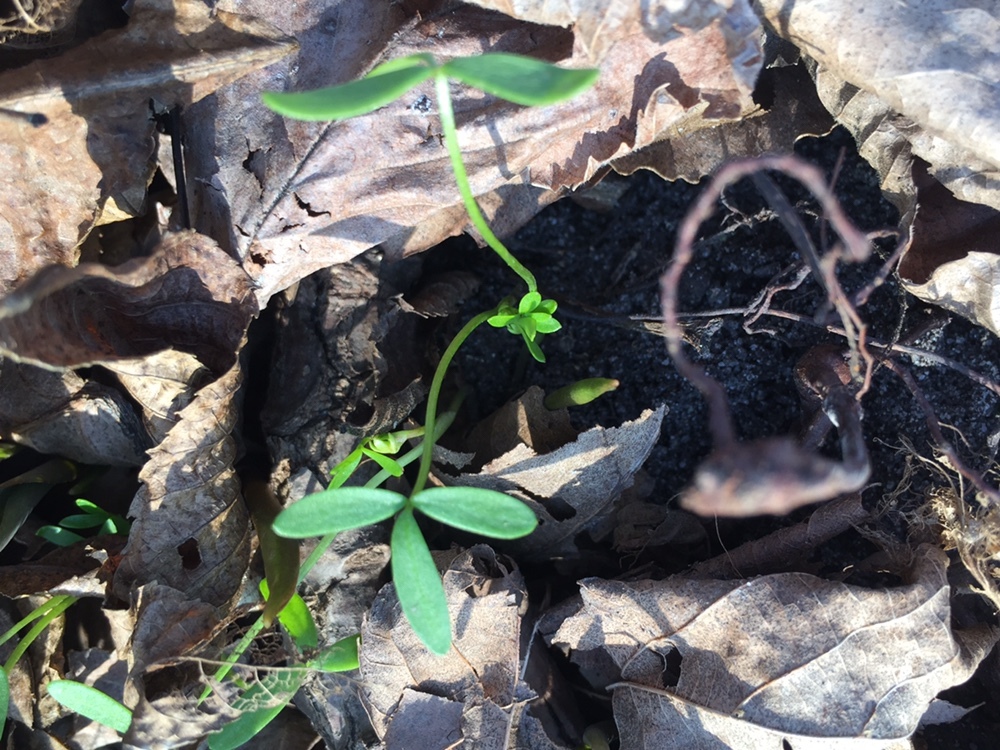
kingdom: Plantae
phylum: Tracheophyta
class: Magnoliopsida
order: Brassicales
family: Limnanthaceae
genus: Floerkea
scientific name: Floerkea proserpinacoides
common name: False mermaid
